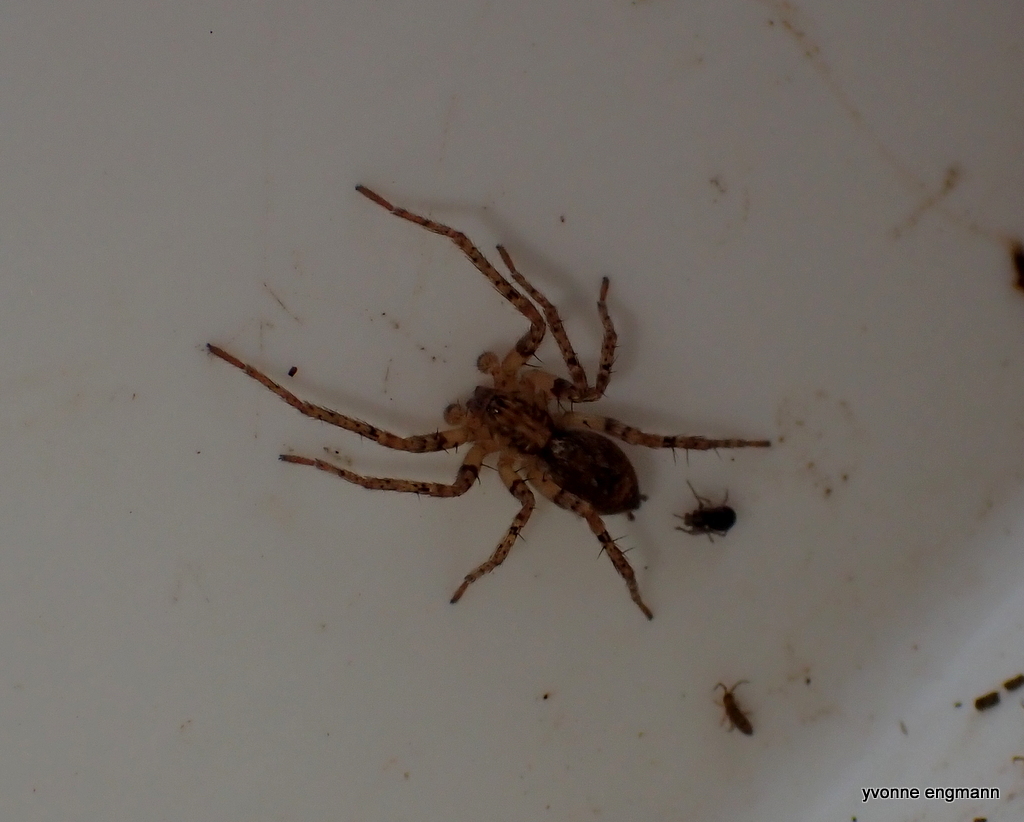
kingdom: Animalia
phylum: Arthropoda
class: Arachnida
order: Araneae
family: Anyphaenidae
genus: Anyphaena
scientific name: Anyphaena accentuata
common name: Buzzing spider
